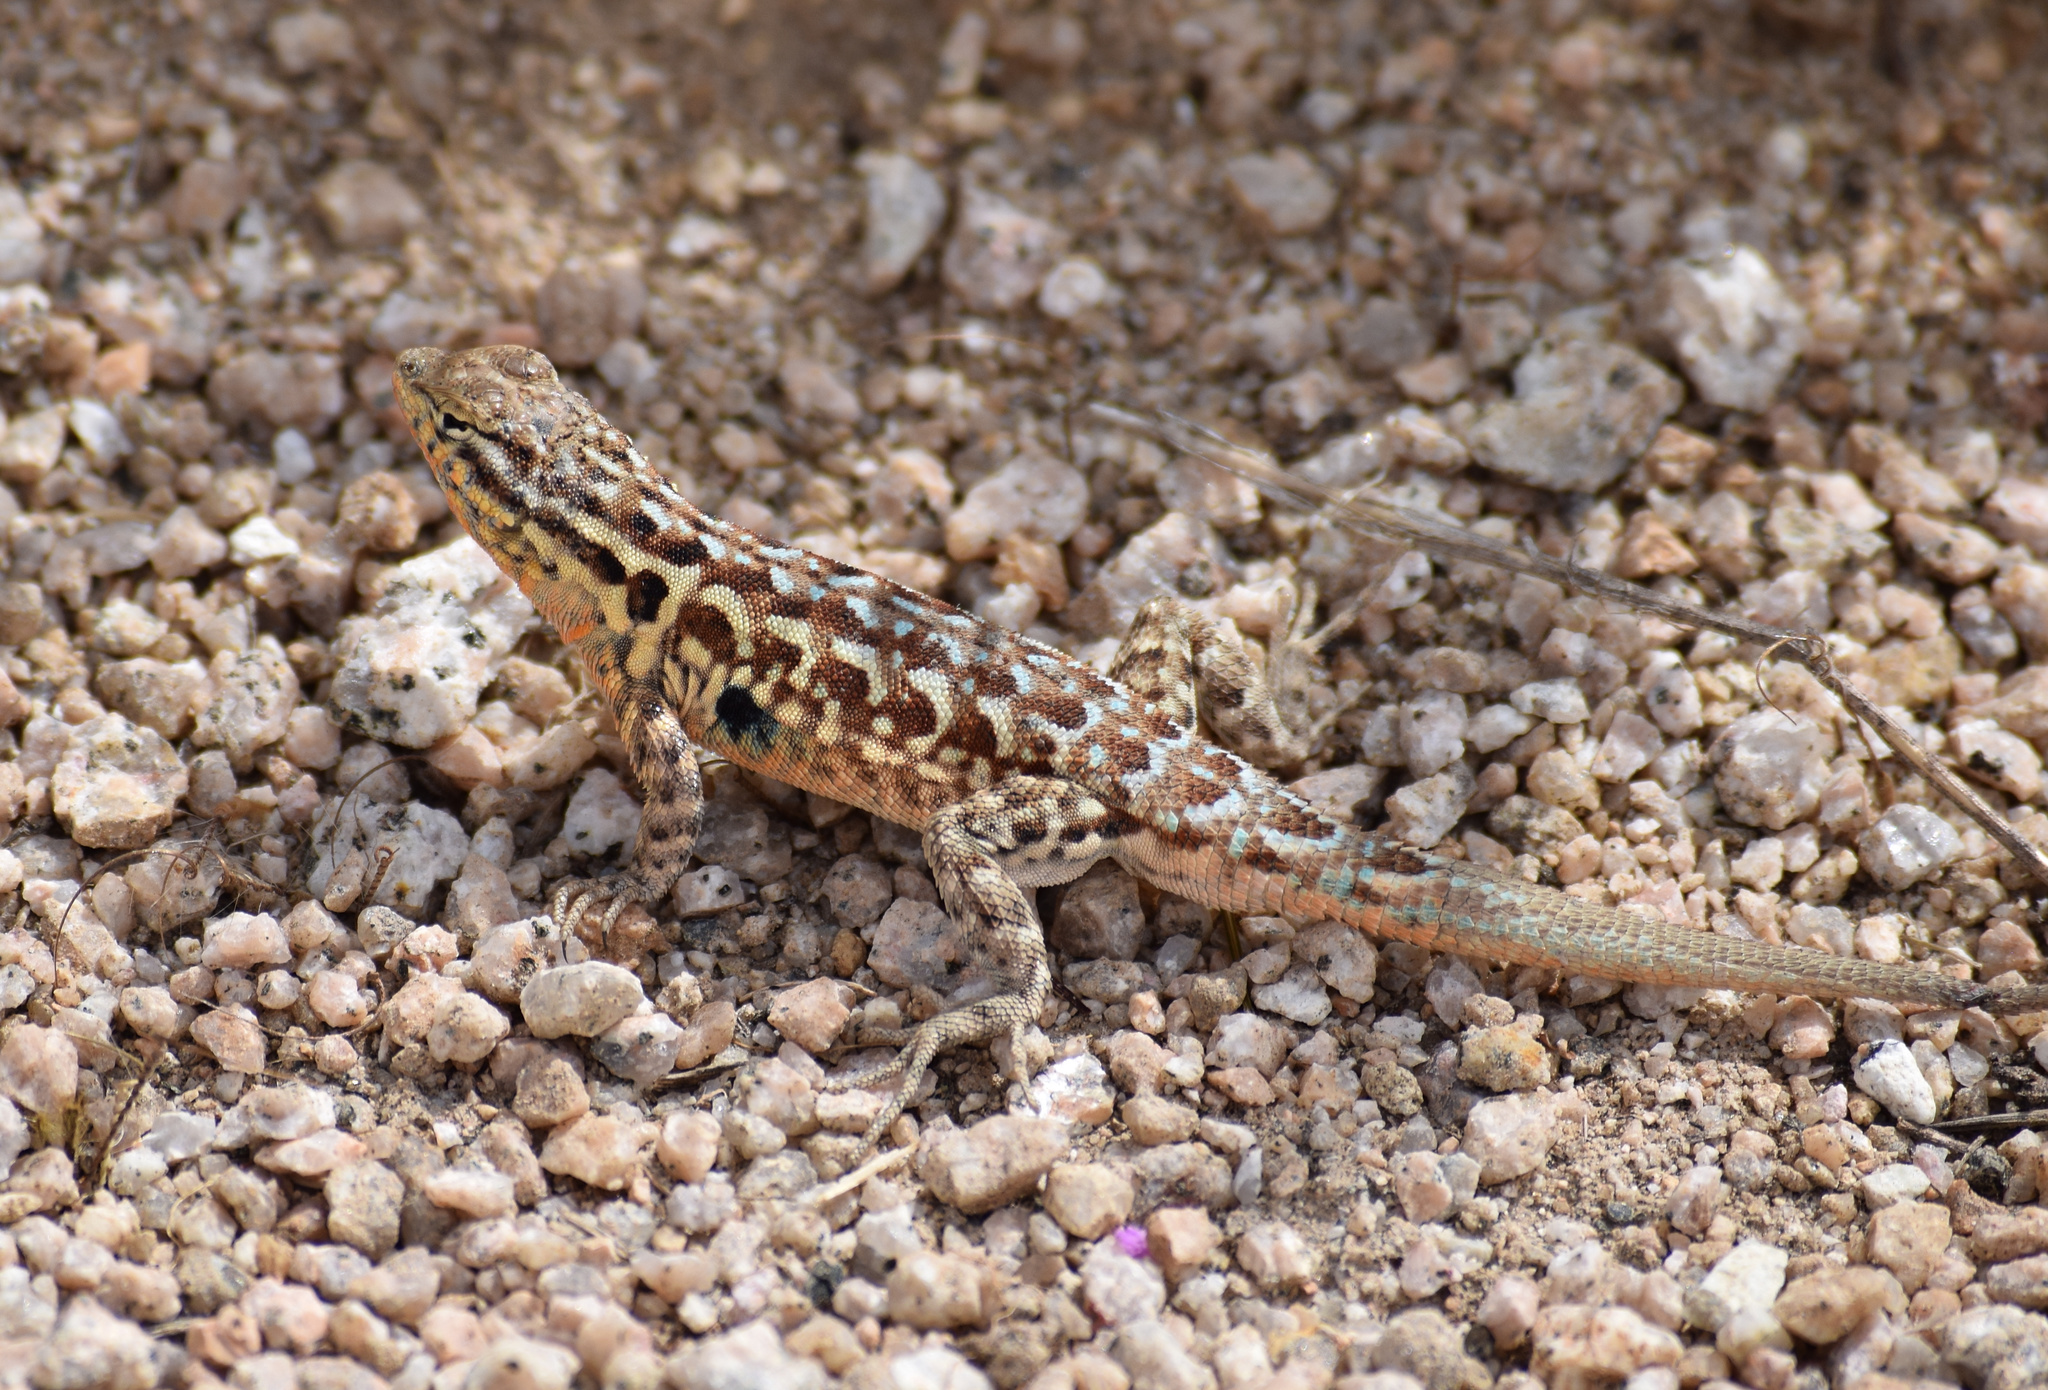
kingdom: Animalia
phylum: Chordata
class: Squamata
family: Phrynosomatidae
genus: Uta
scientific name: Uta stansburiana
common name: Side-blotched lizard
